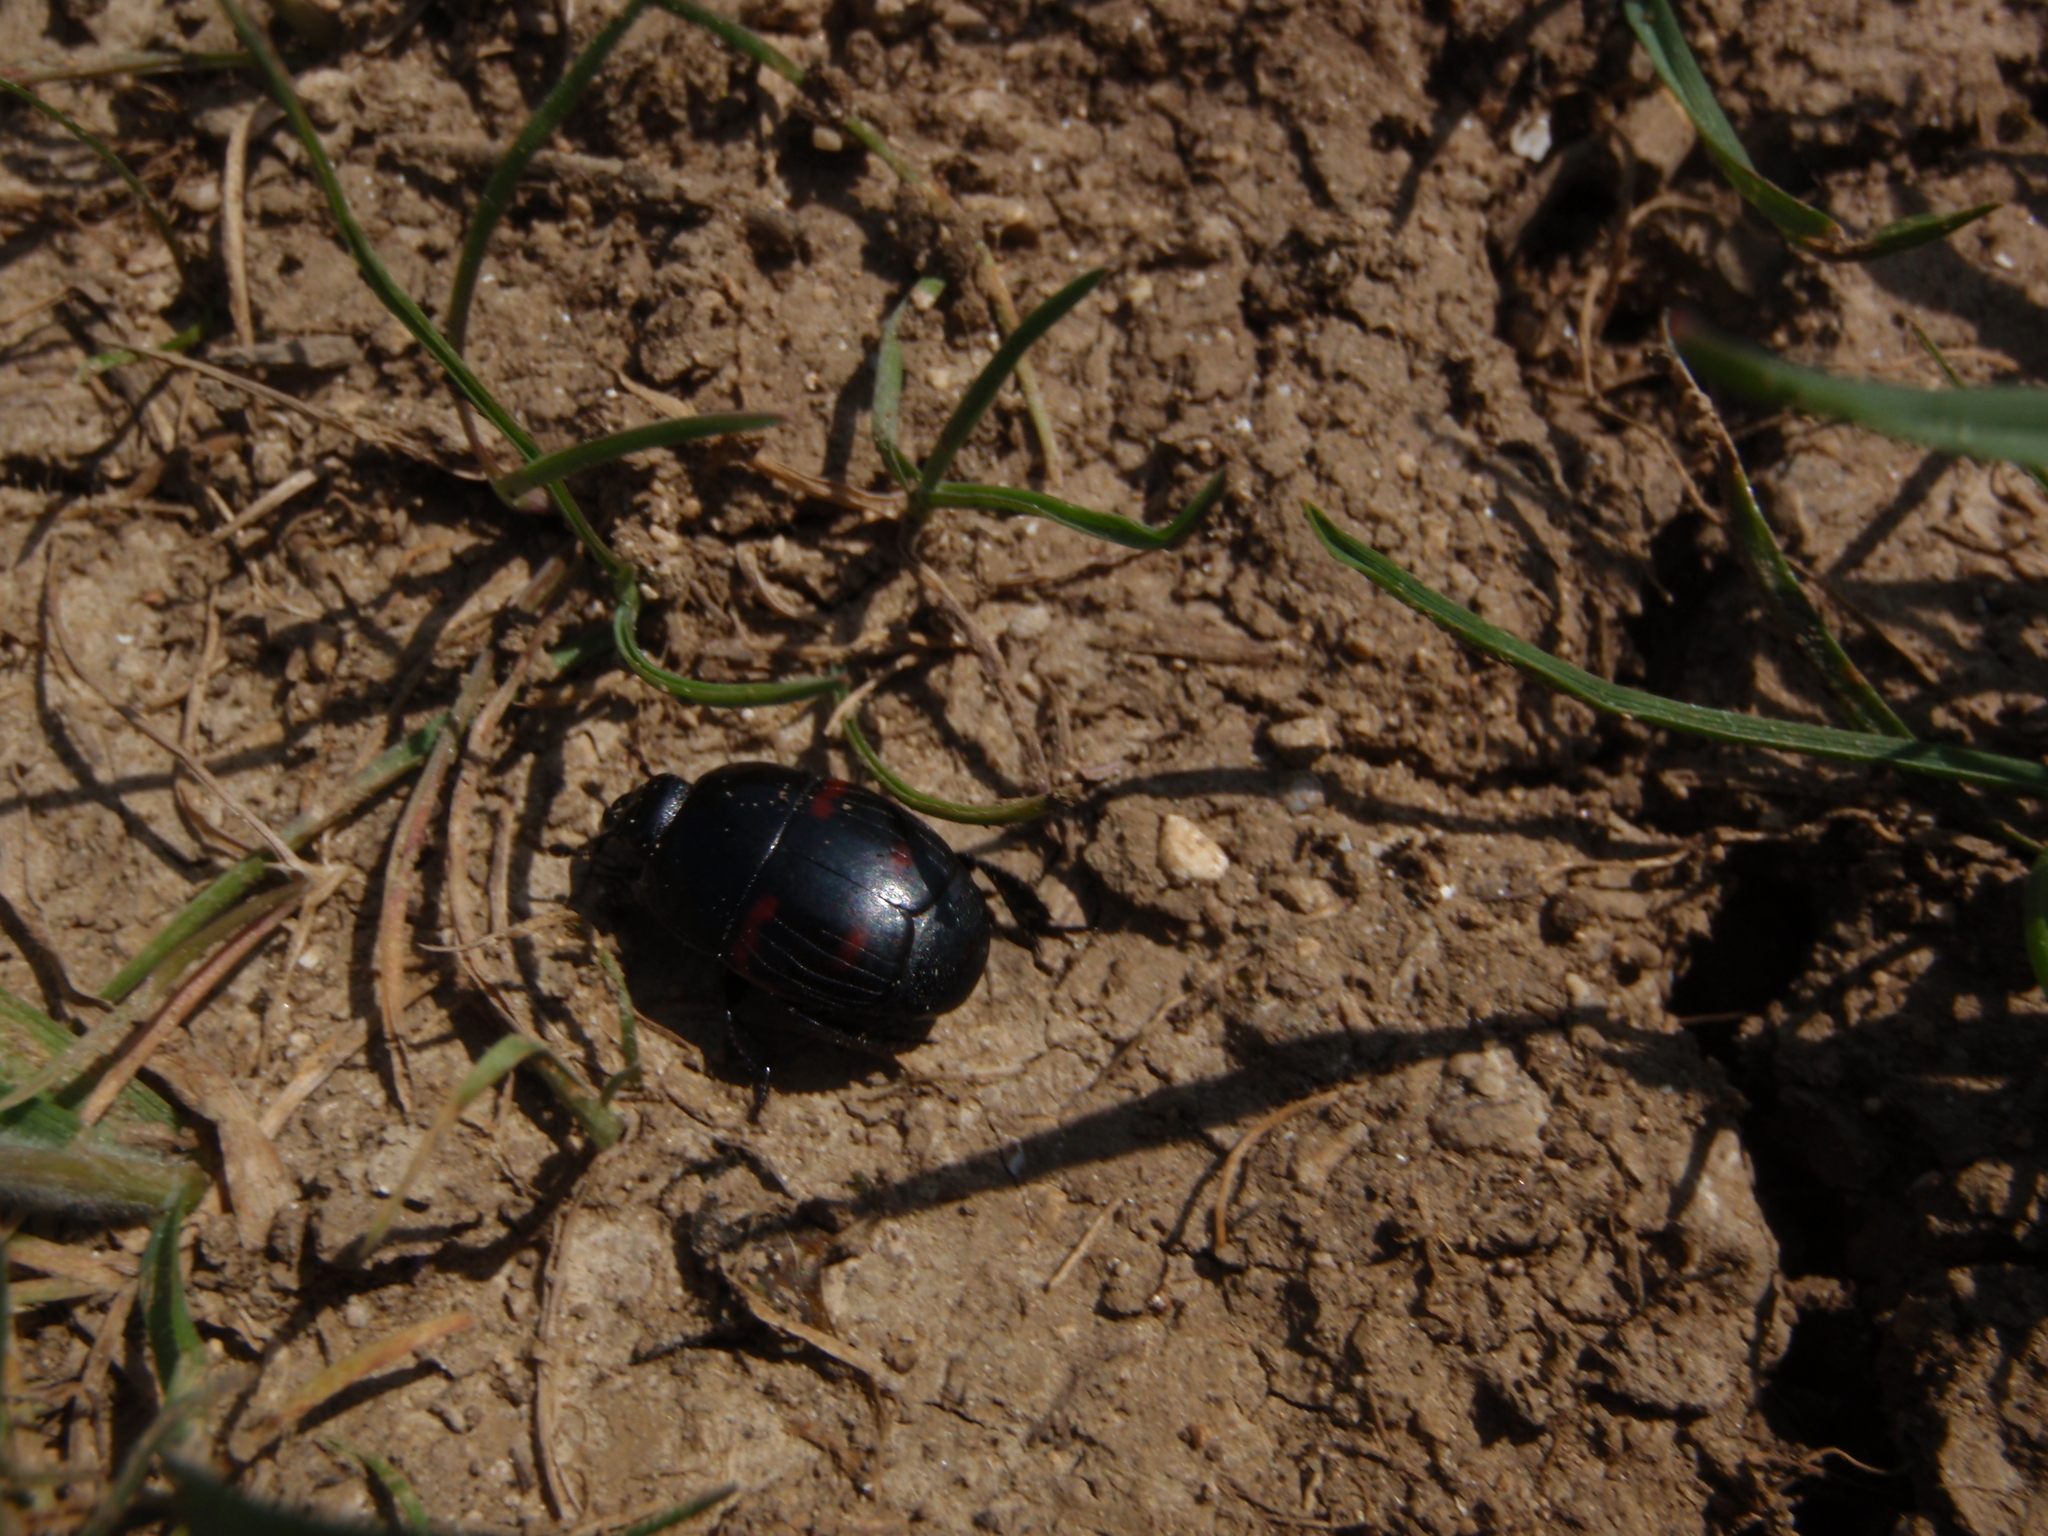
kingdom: Animalia
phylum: Arthropoda
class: Insecta
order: Coleoptera
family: Histeridae
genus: Hister
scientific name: Hister quadrimaculatus
